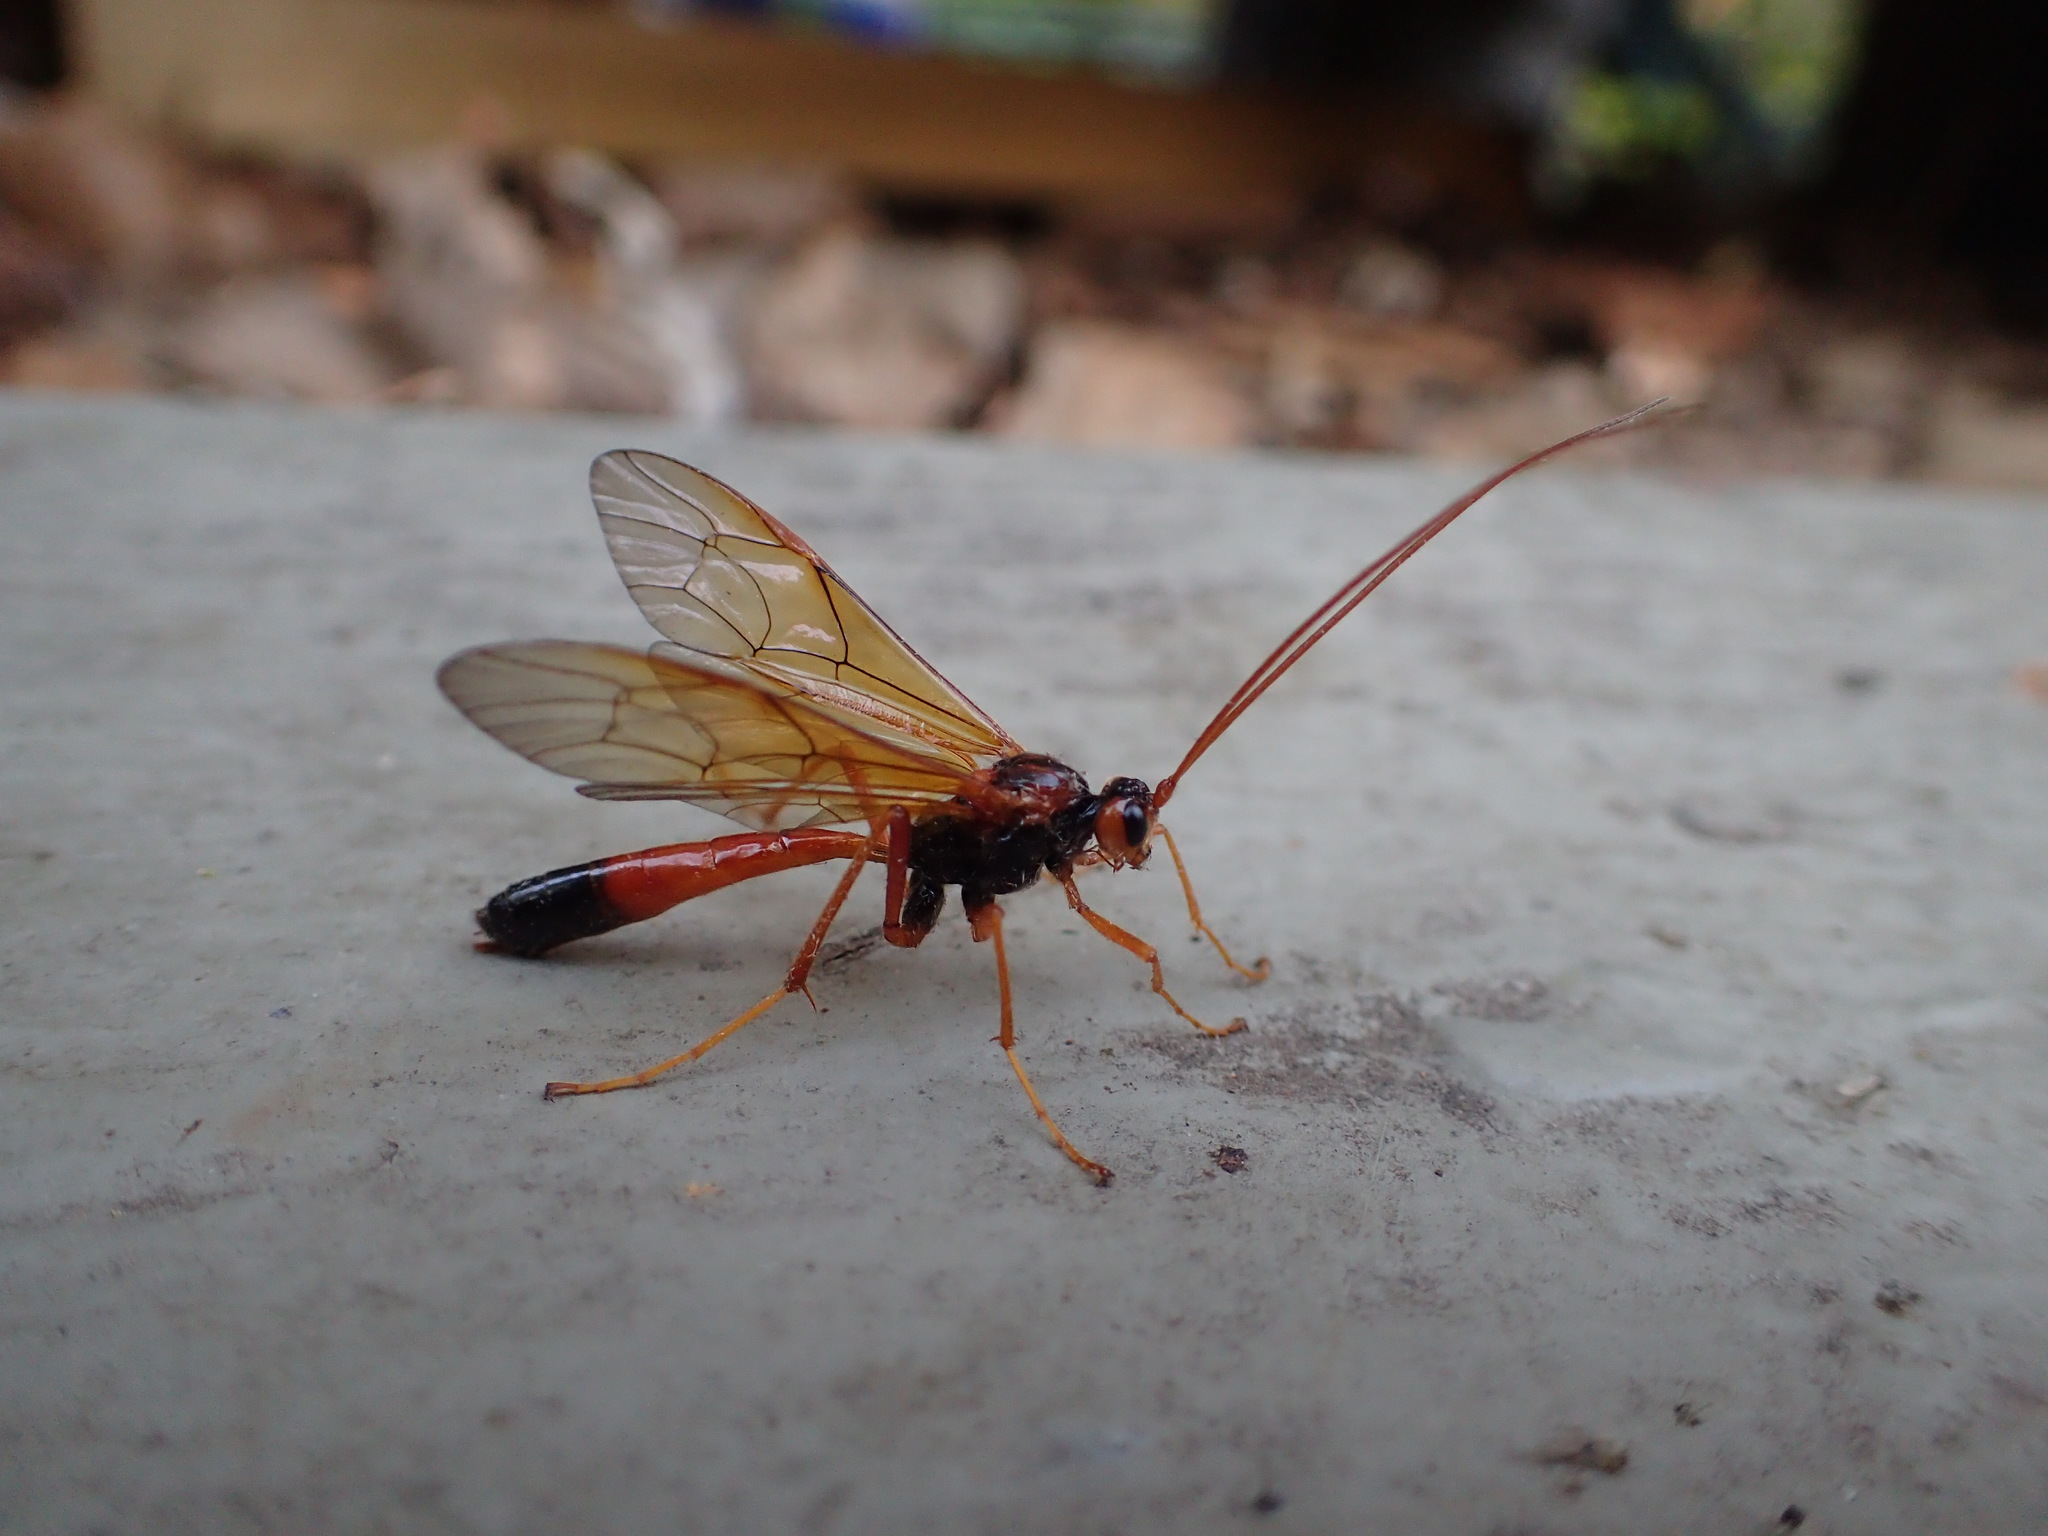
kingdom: Animalia
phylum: Arthropoda
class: Insecta
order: Hymenoptera
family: Ichneumonidae
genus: Opheltes
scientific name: Opheltes glaucopterus
